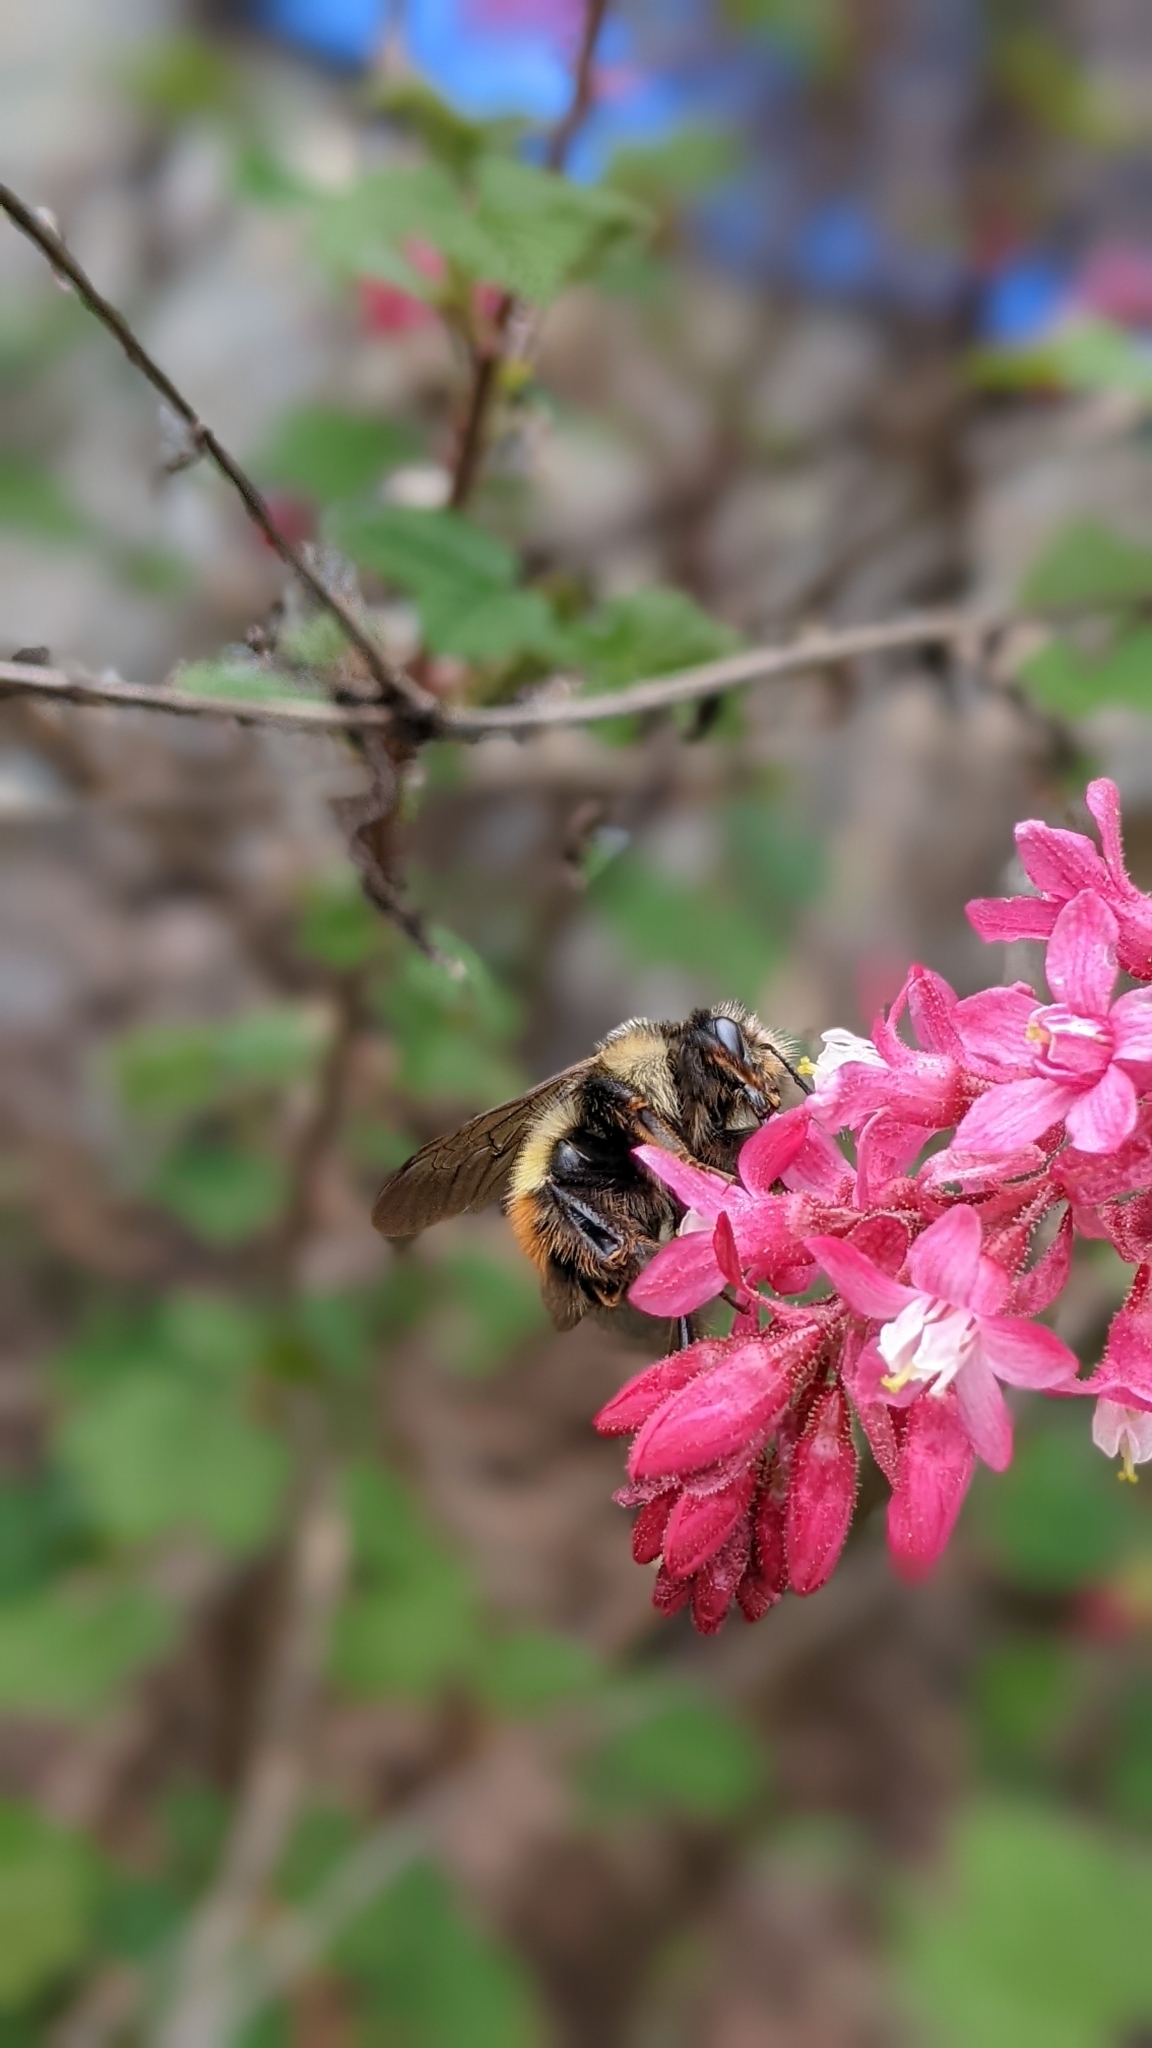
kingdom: Animalia
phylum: Arthropoda
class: Insecta
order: Hymenoptera
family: Apidae
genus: Bombus
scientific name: Bombus flavifrons
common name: Yellow head bumble bee
